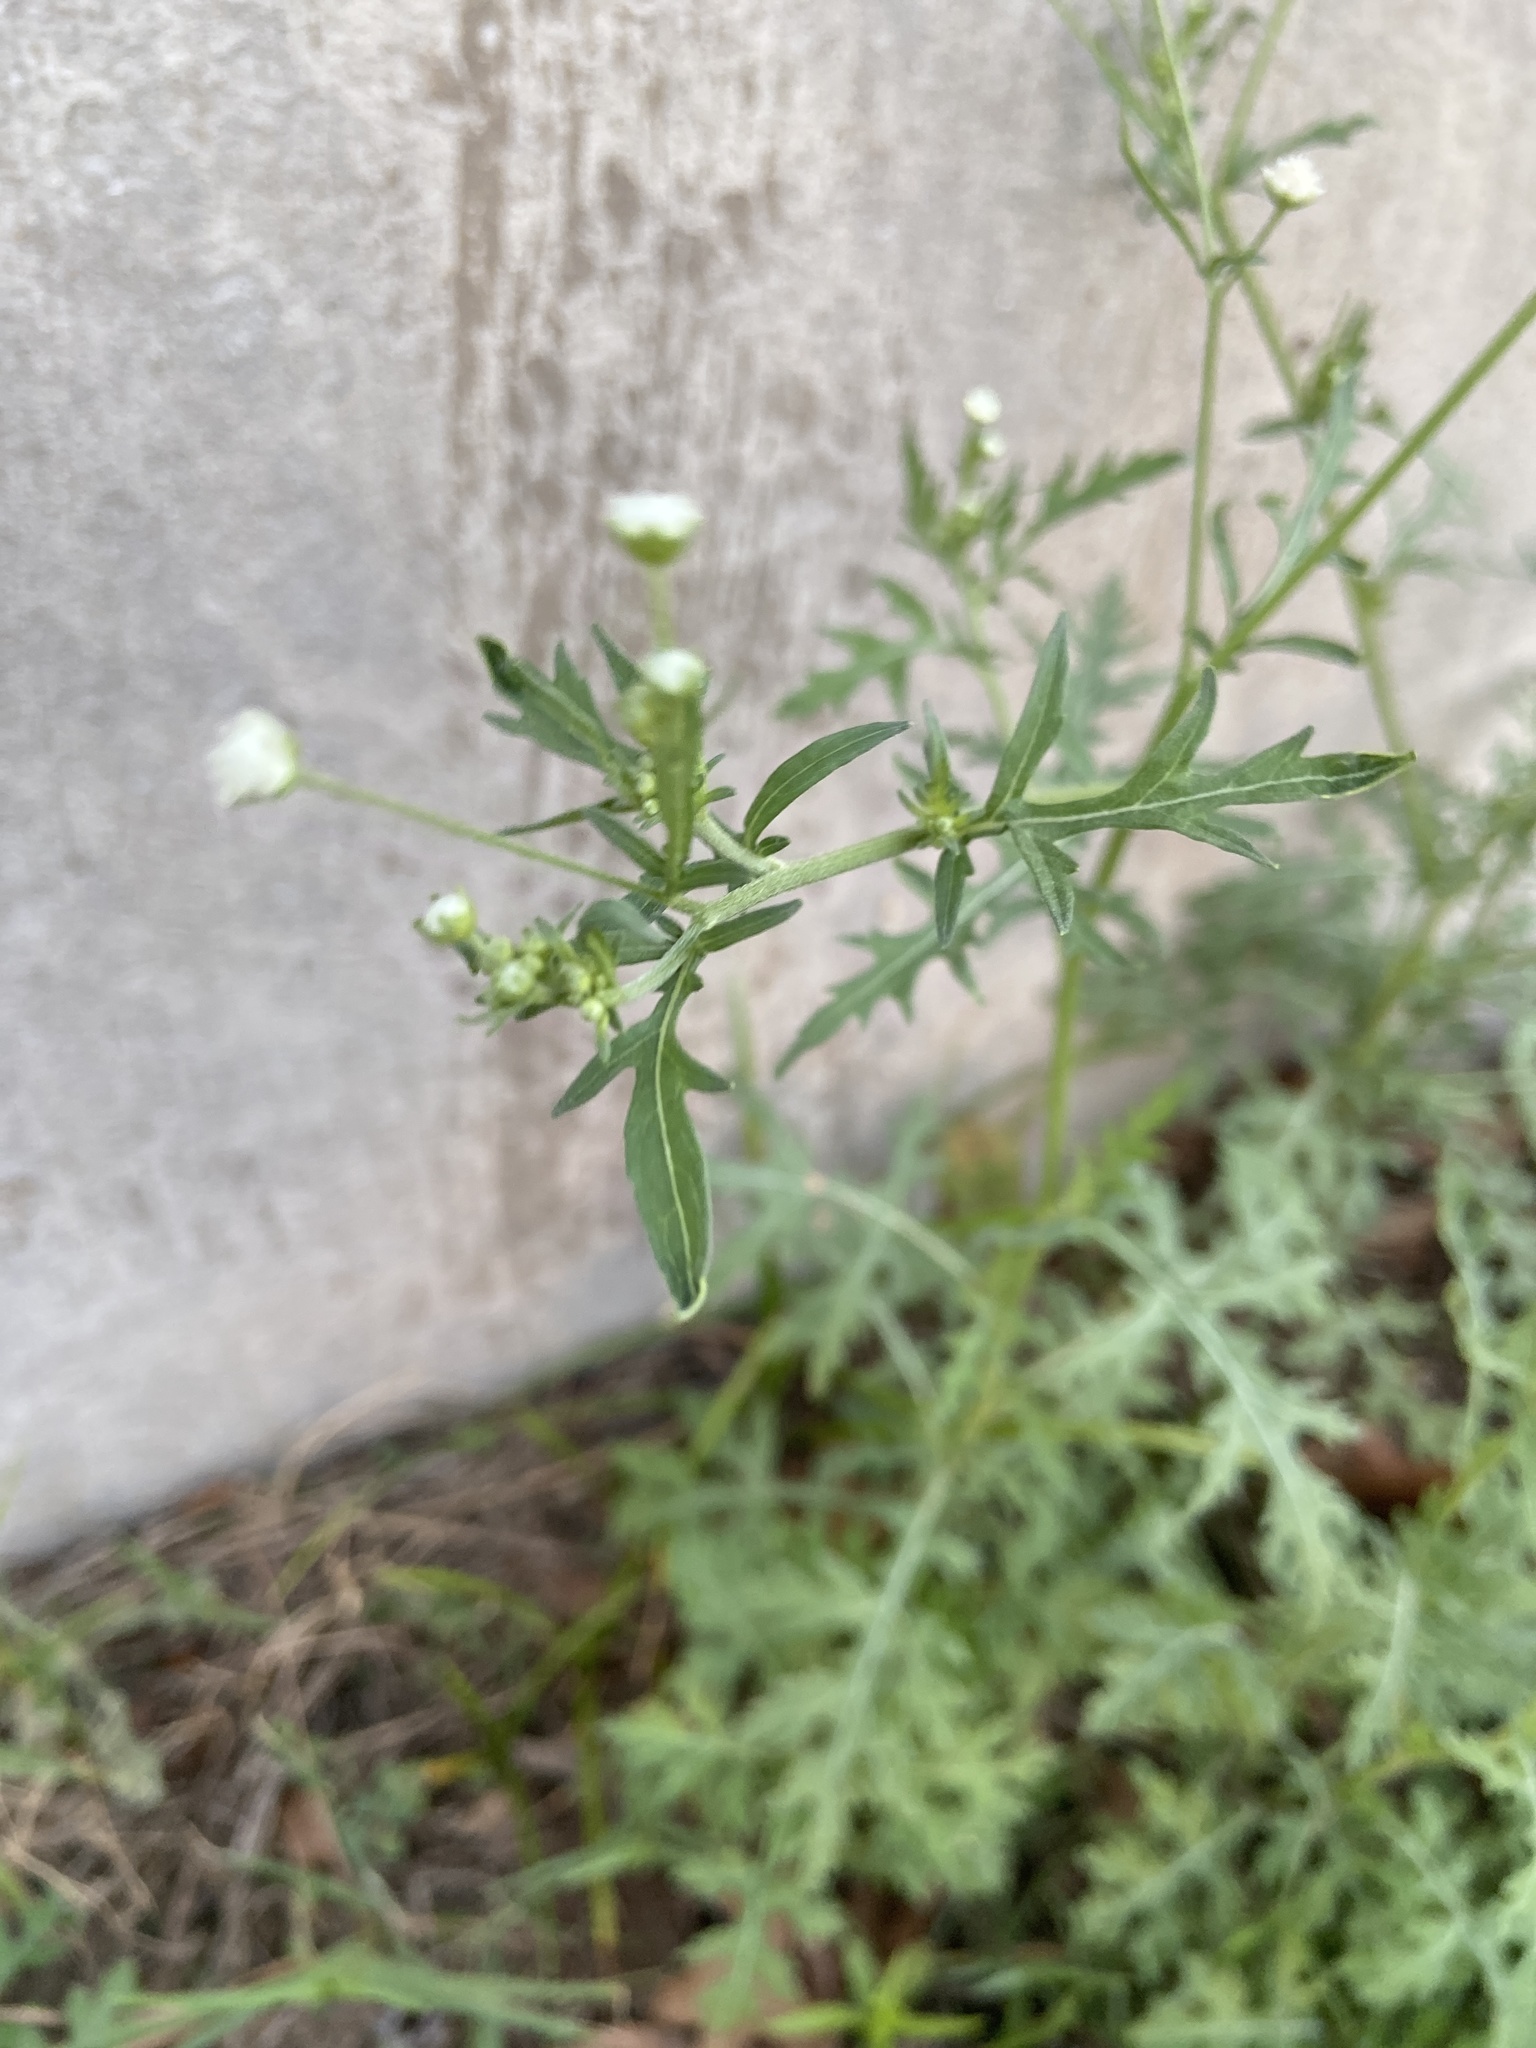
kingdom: Plantae
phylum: Tracheophyta
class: Magnoliopsida
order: Asterales
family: Asteraceae
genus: Parthenium
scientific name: Parthenium hysterophorus
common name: Santa maria feverfew
